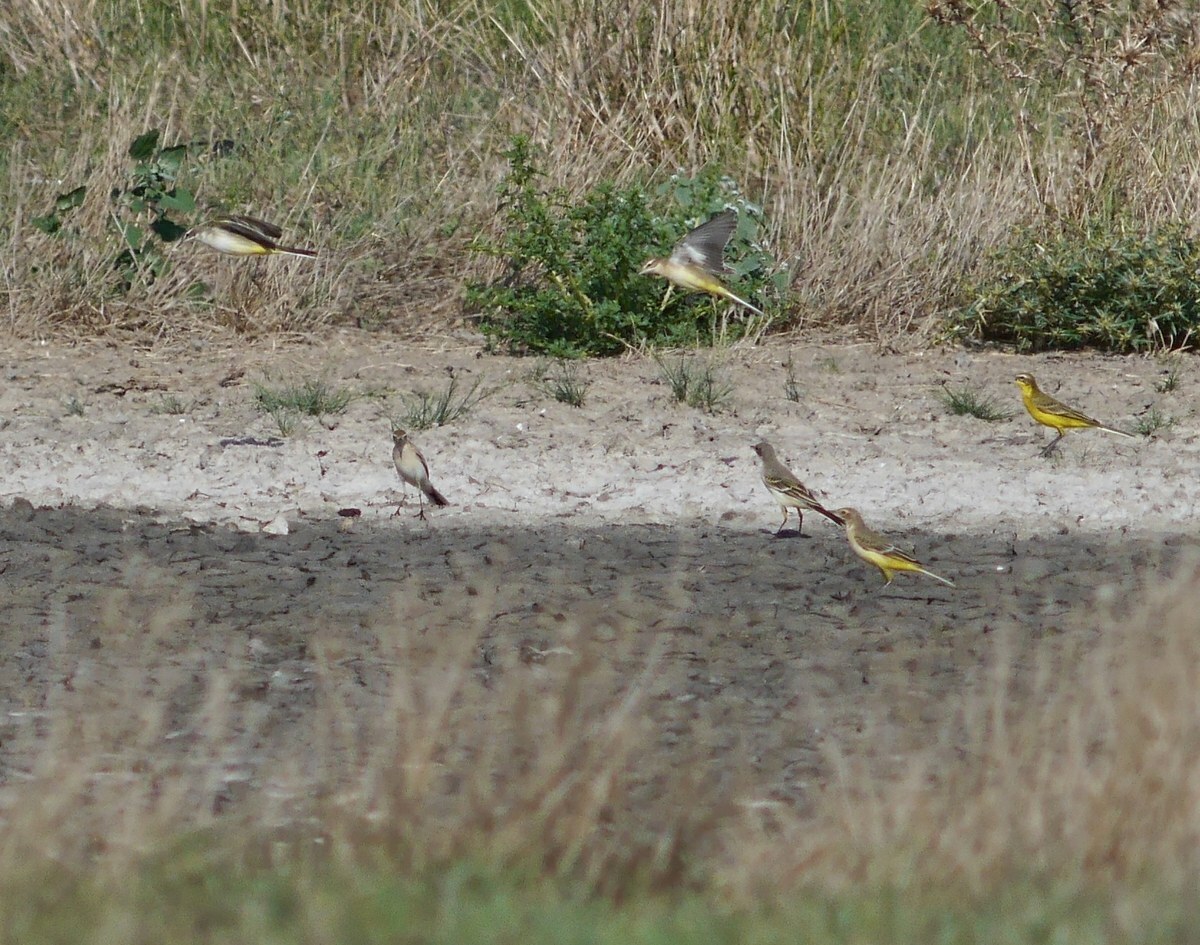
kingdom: Animalia
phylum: Chordata
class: Aves
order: Passeriformes
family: Motacillidae
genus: Motacilla
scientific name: Motacilla flava
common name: Western yellow wagtail
